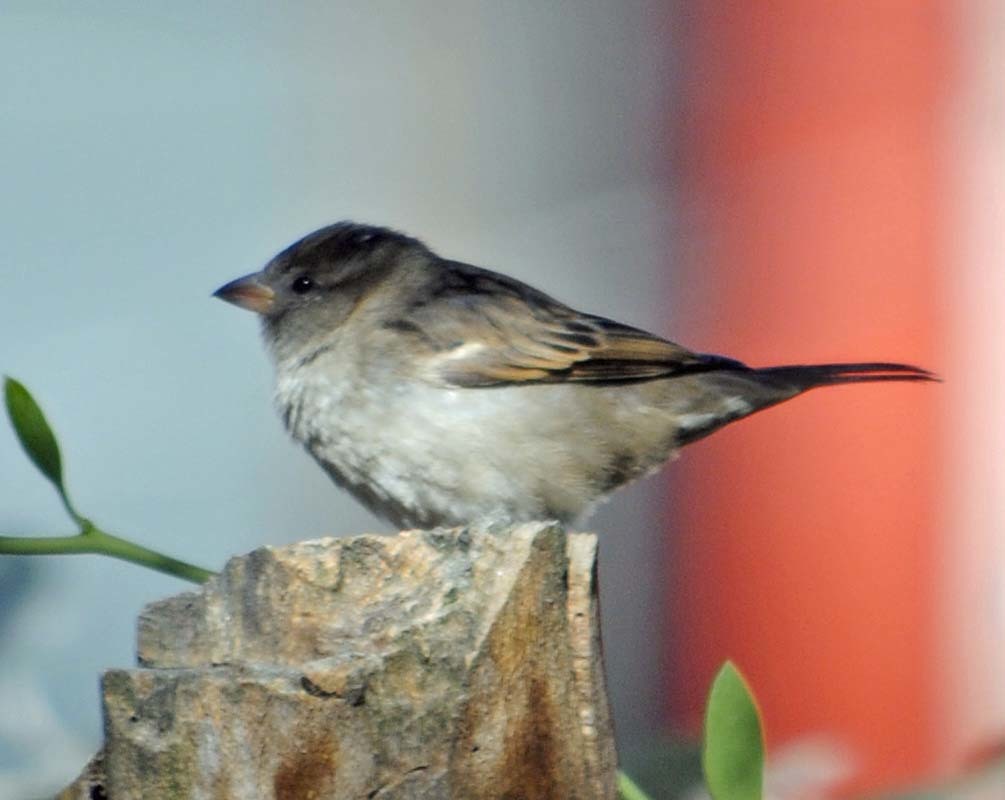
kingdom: Animalia
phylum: Chordata
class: Aves
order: Passeriformes
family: Passeridae
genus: Passer
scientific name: Passer domesticus
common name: House sparrow
